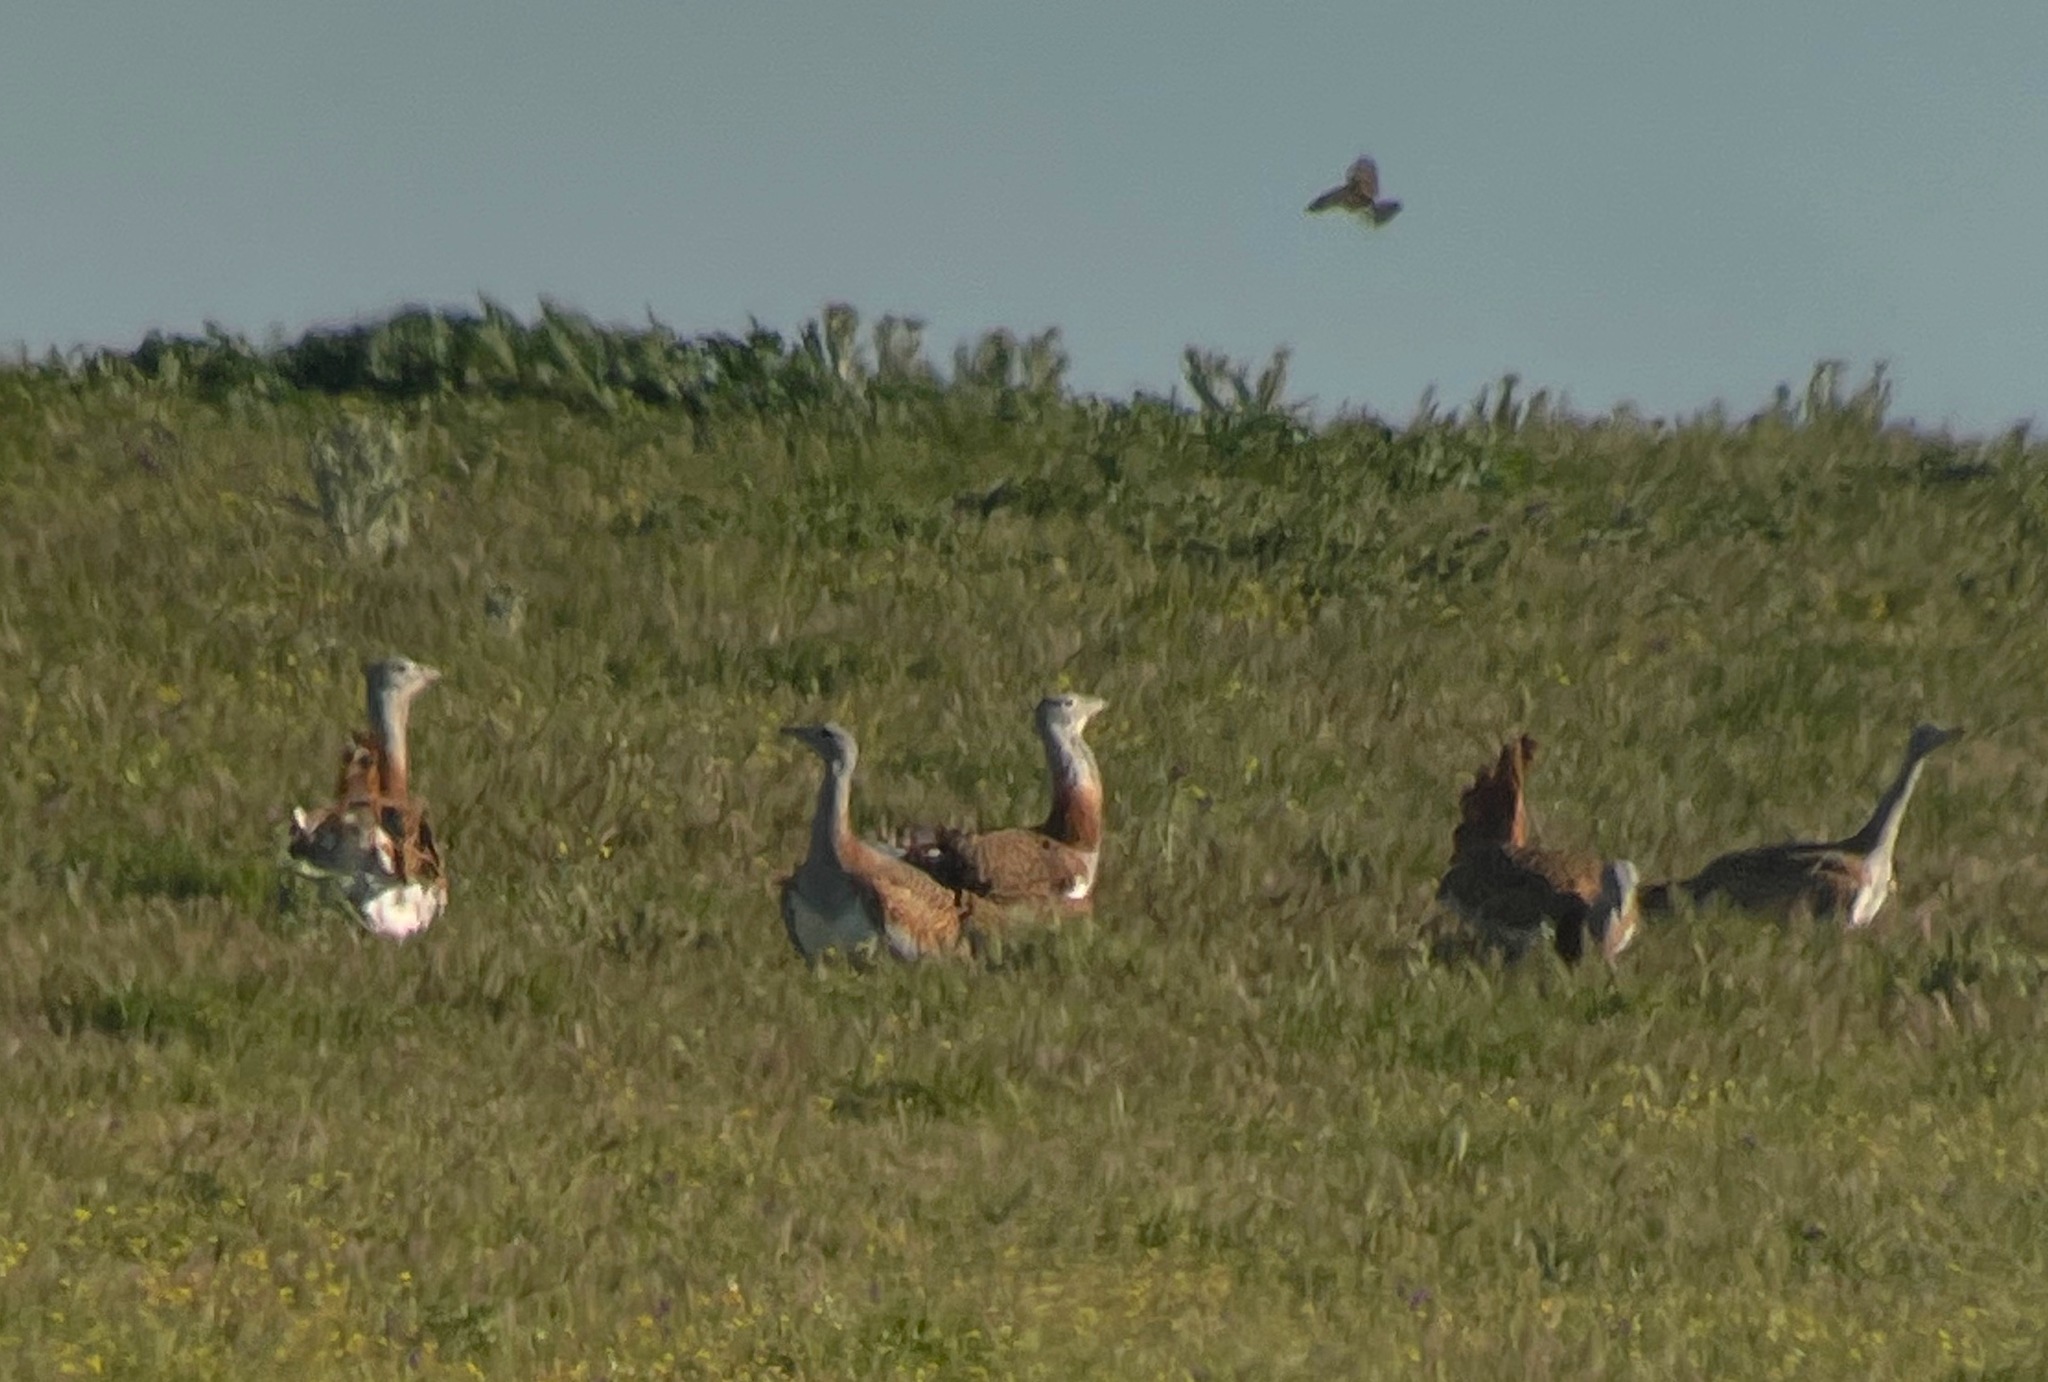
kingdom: Animalia
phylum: Chordata
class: Aves
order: Otidiformes
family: Otididae
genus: Otis
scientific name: Otis tarda
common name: Great bustard
